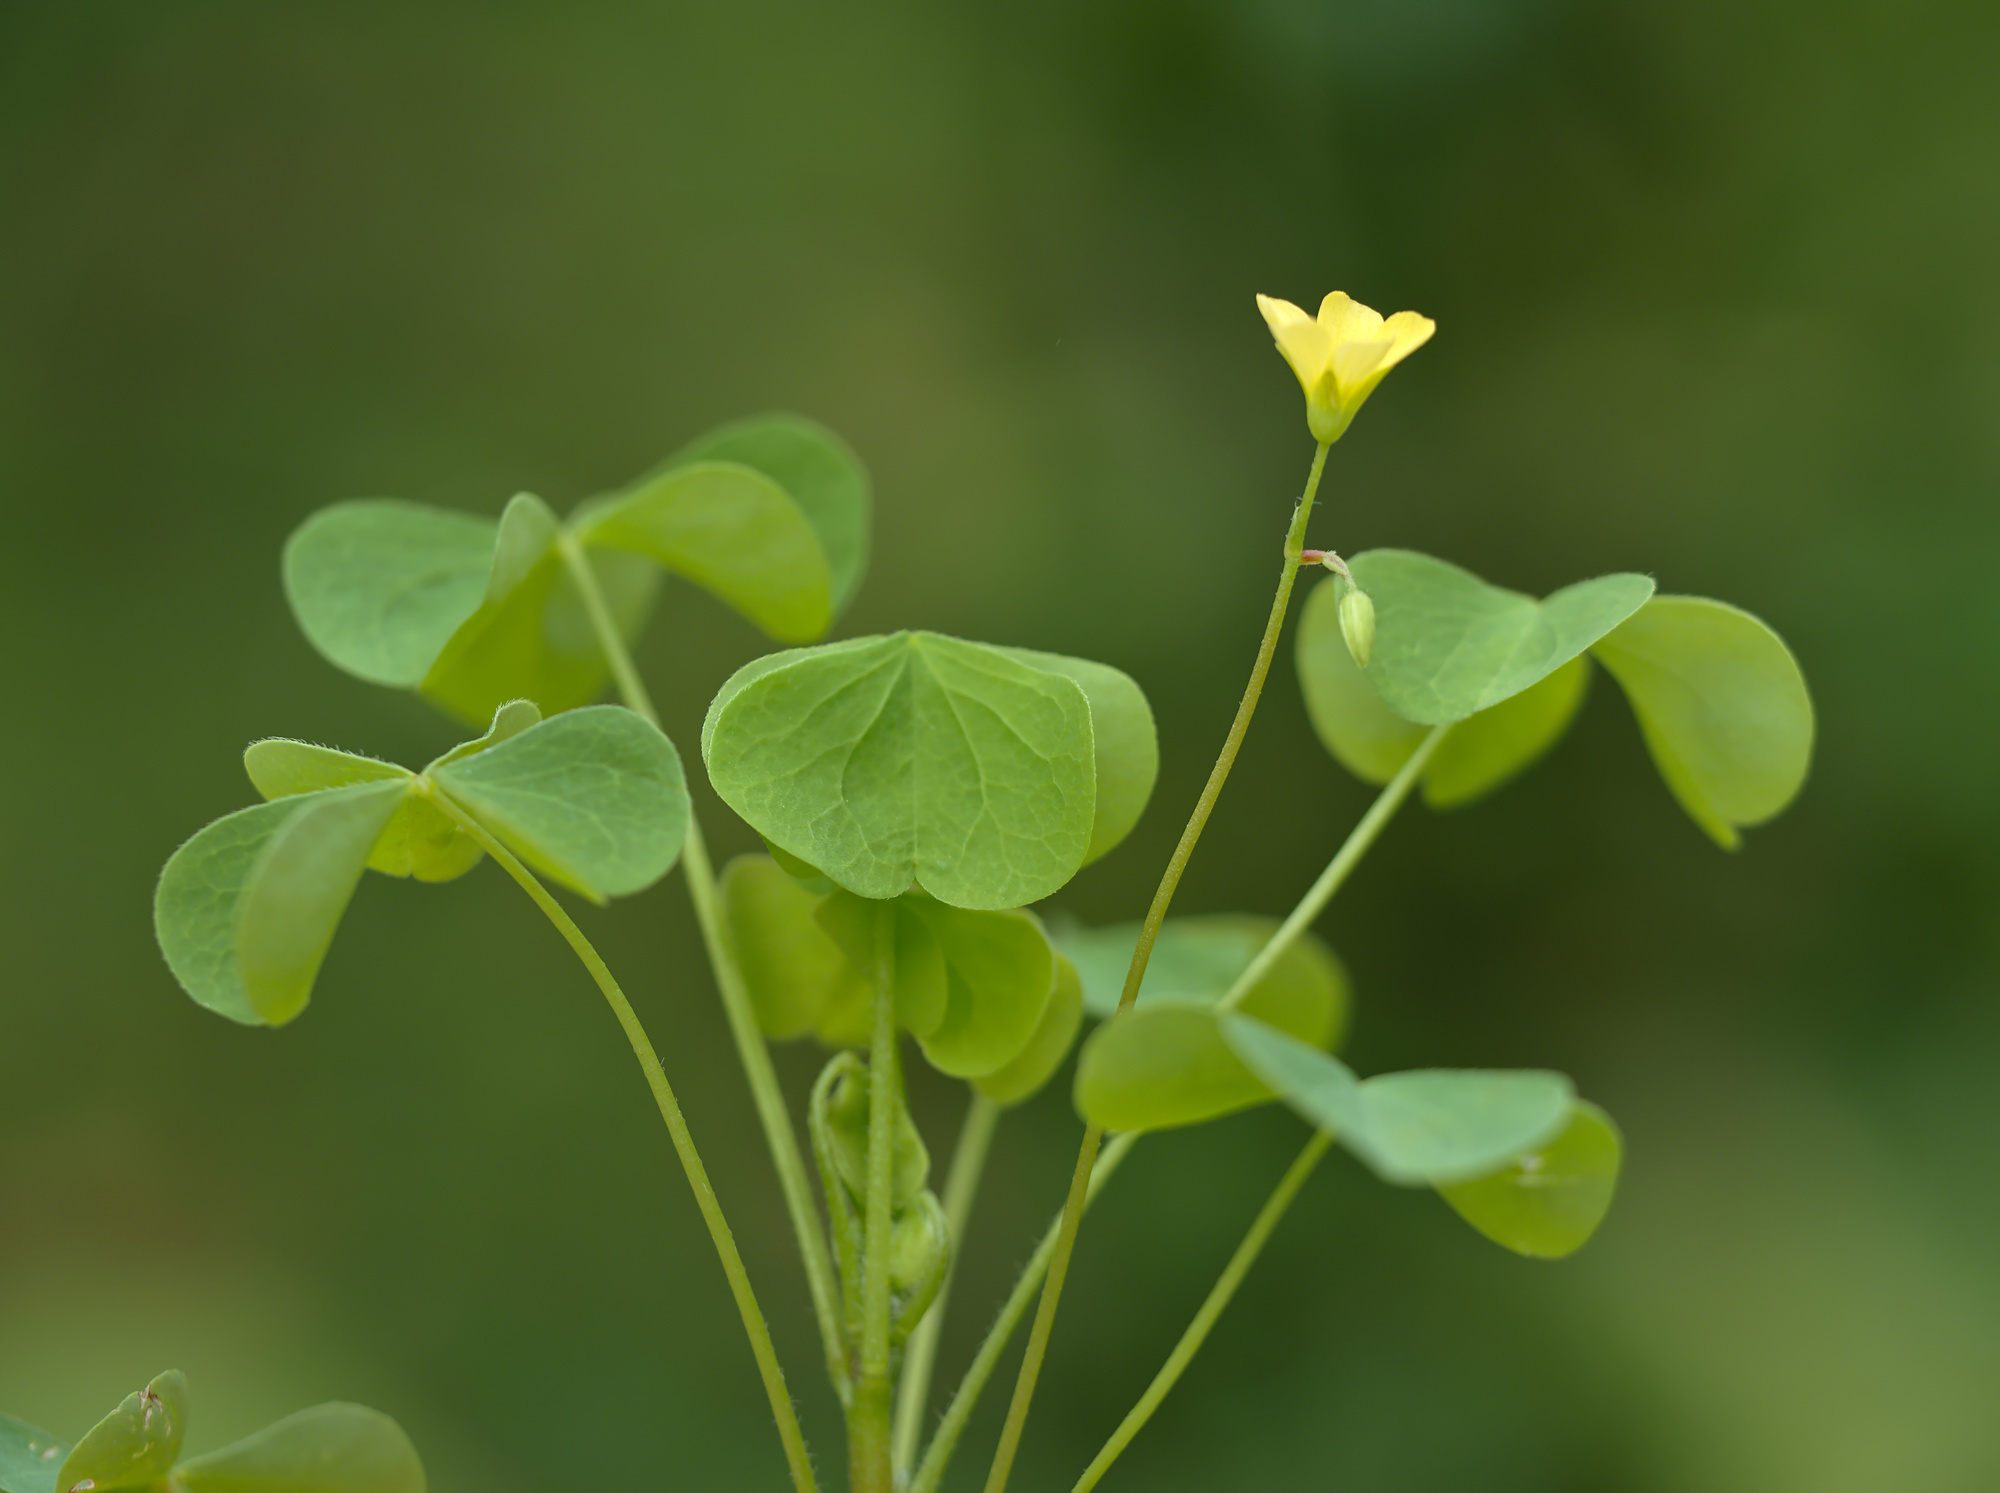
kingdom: Plantae
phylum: Tracheophyta
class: Magnoliopsida
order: Oxalidales
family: Oxalidaceae
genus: Oxalis
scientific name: Oxalis stricta
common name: Upright yellow-sorrel
